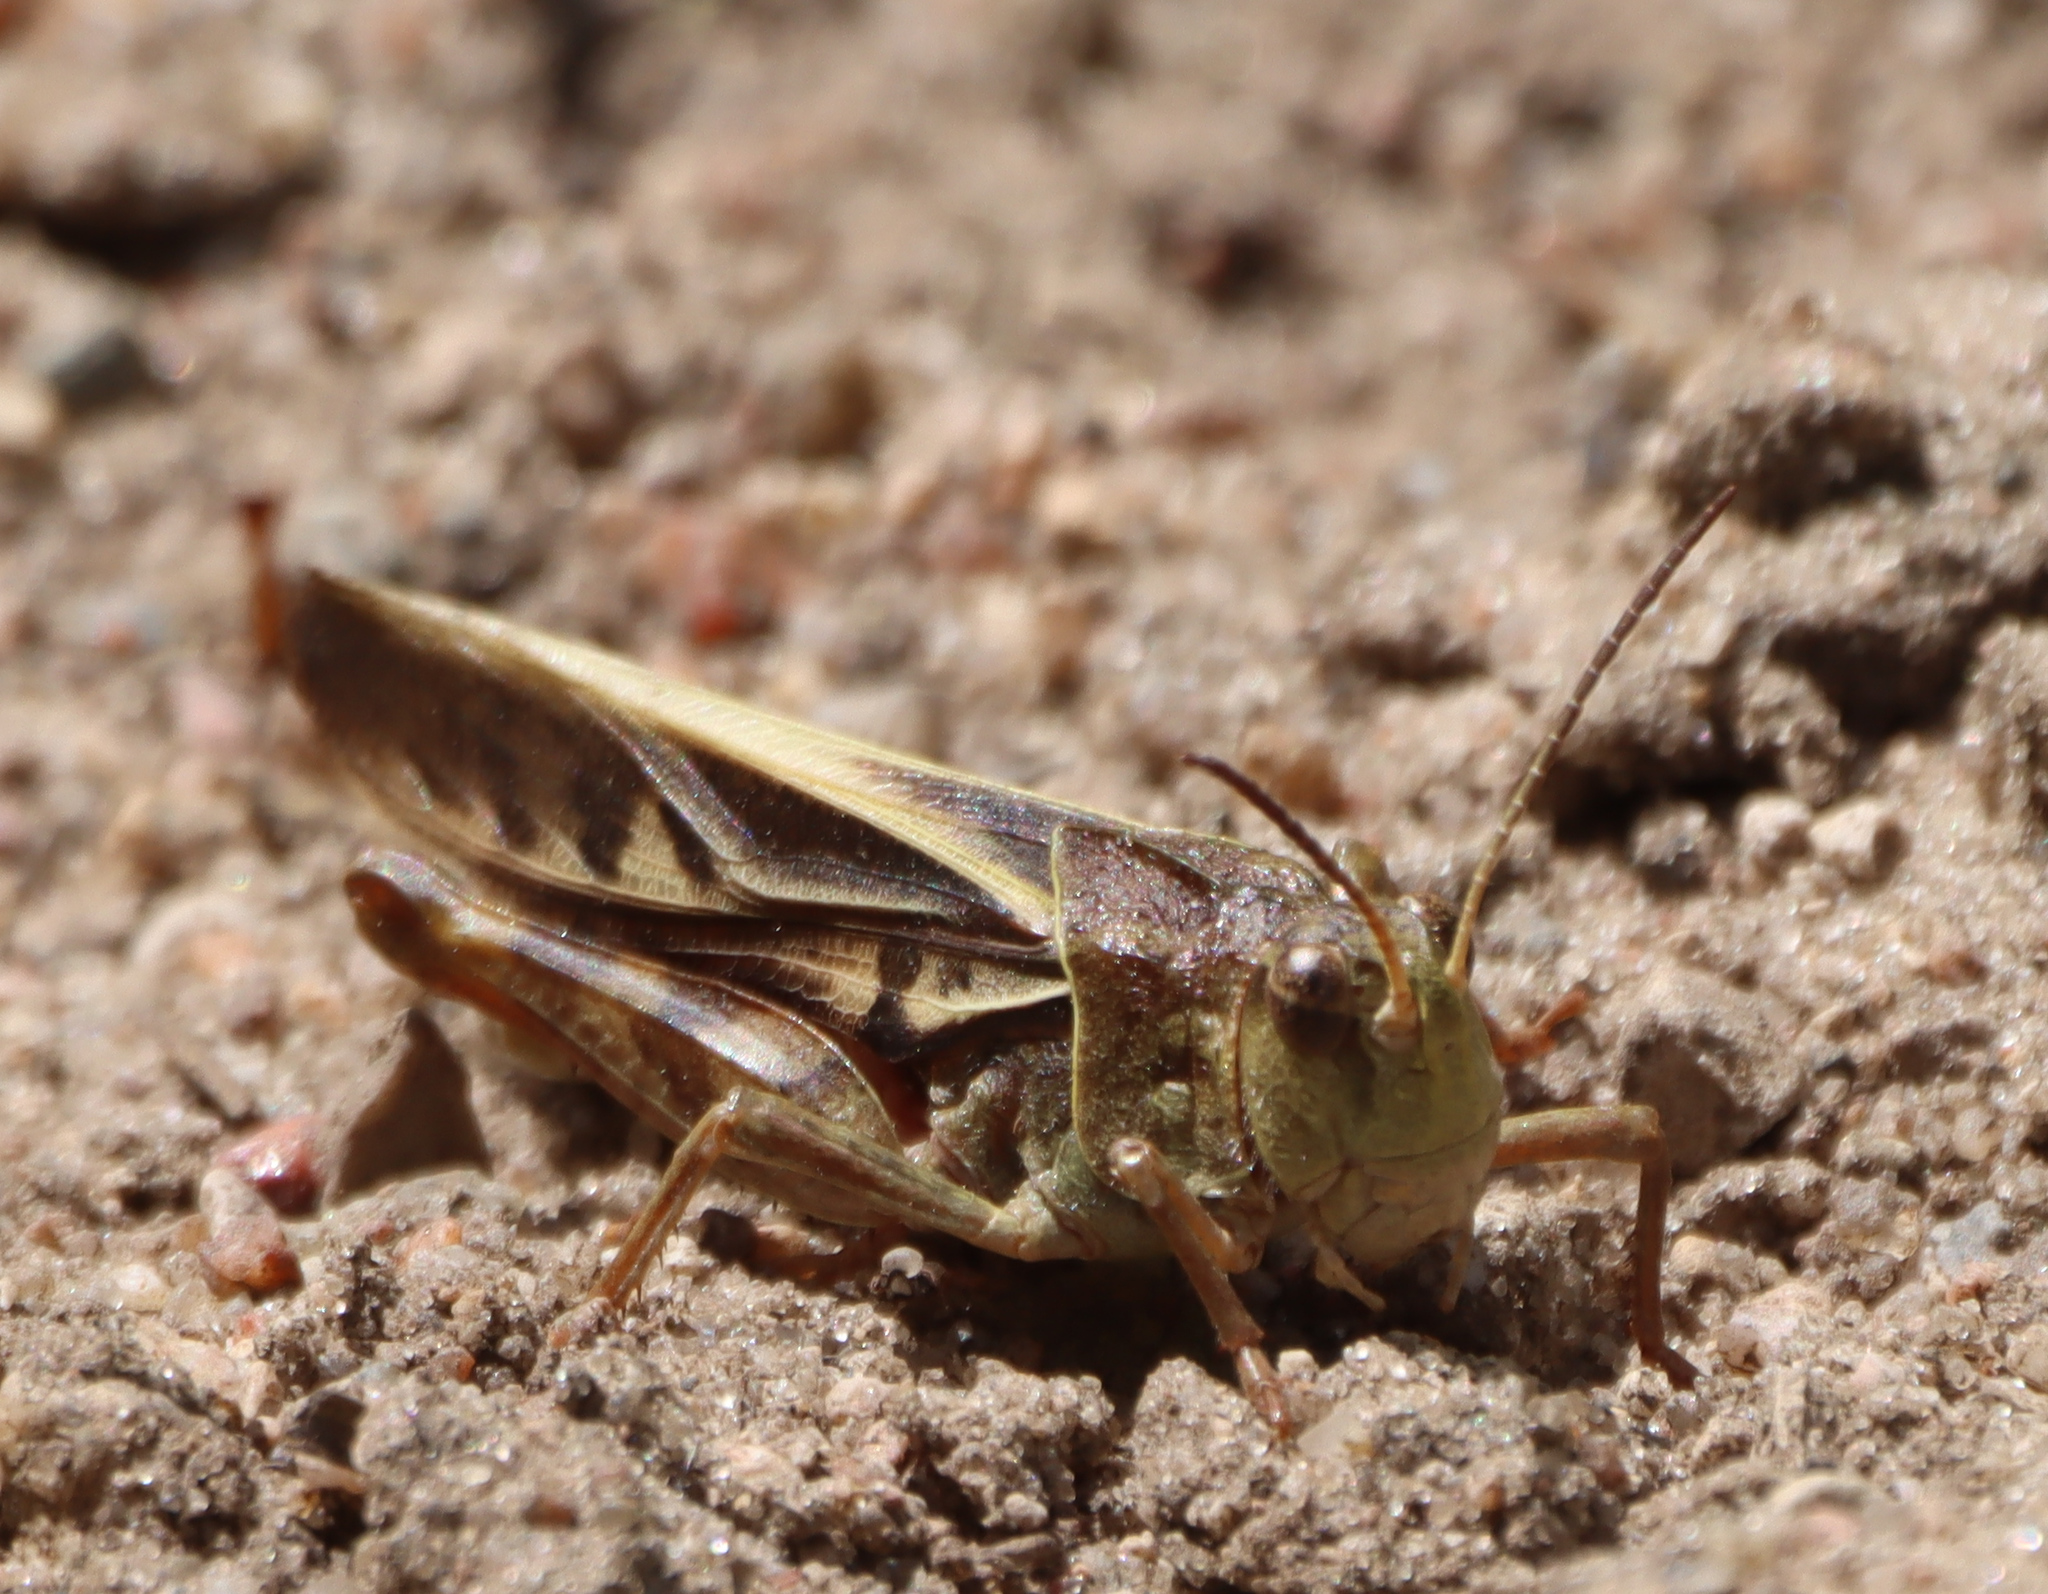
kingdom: Animalia
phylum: Arthropoda
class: Insecta
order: Orthoptera
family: Acrididae
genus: Pardalophora
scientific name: Pardalophora apiculata
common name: Coral-winged locust
